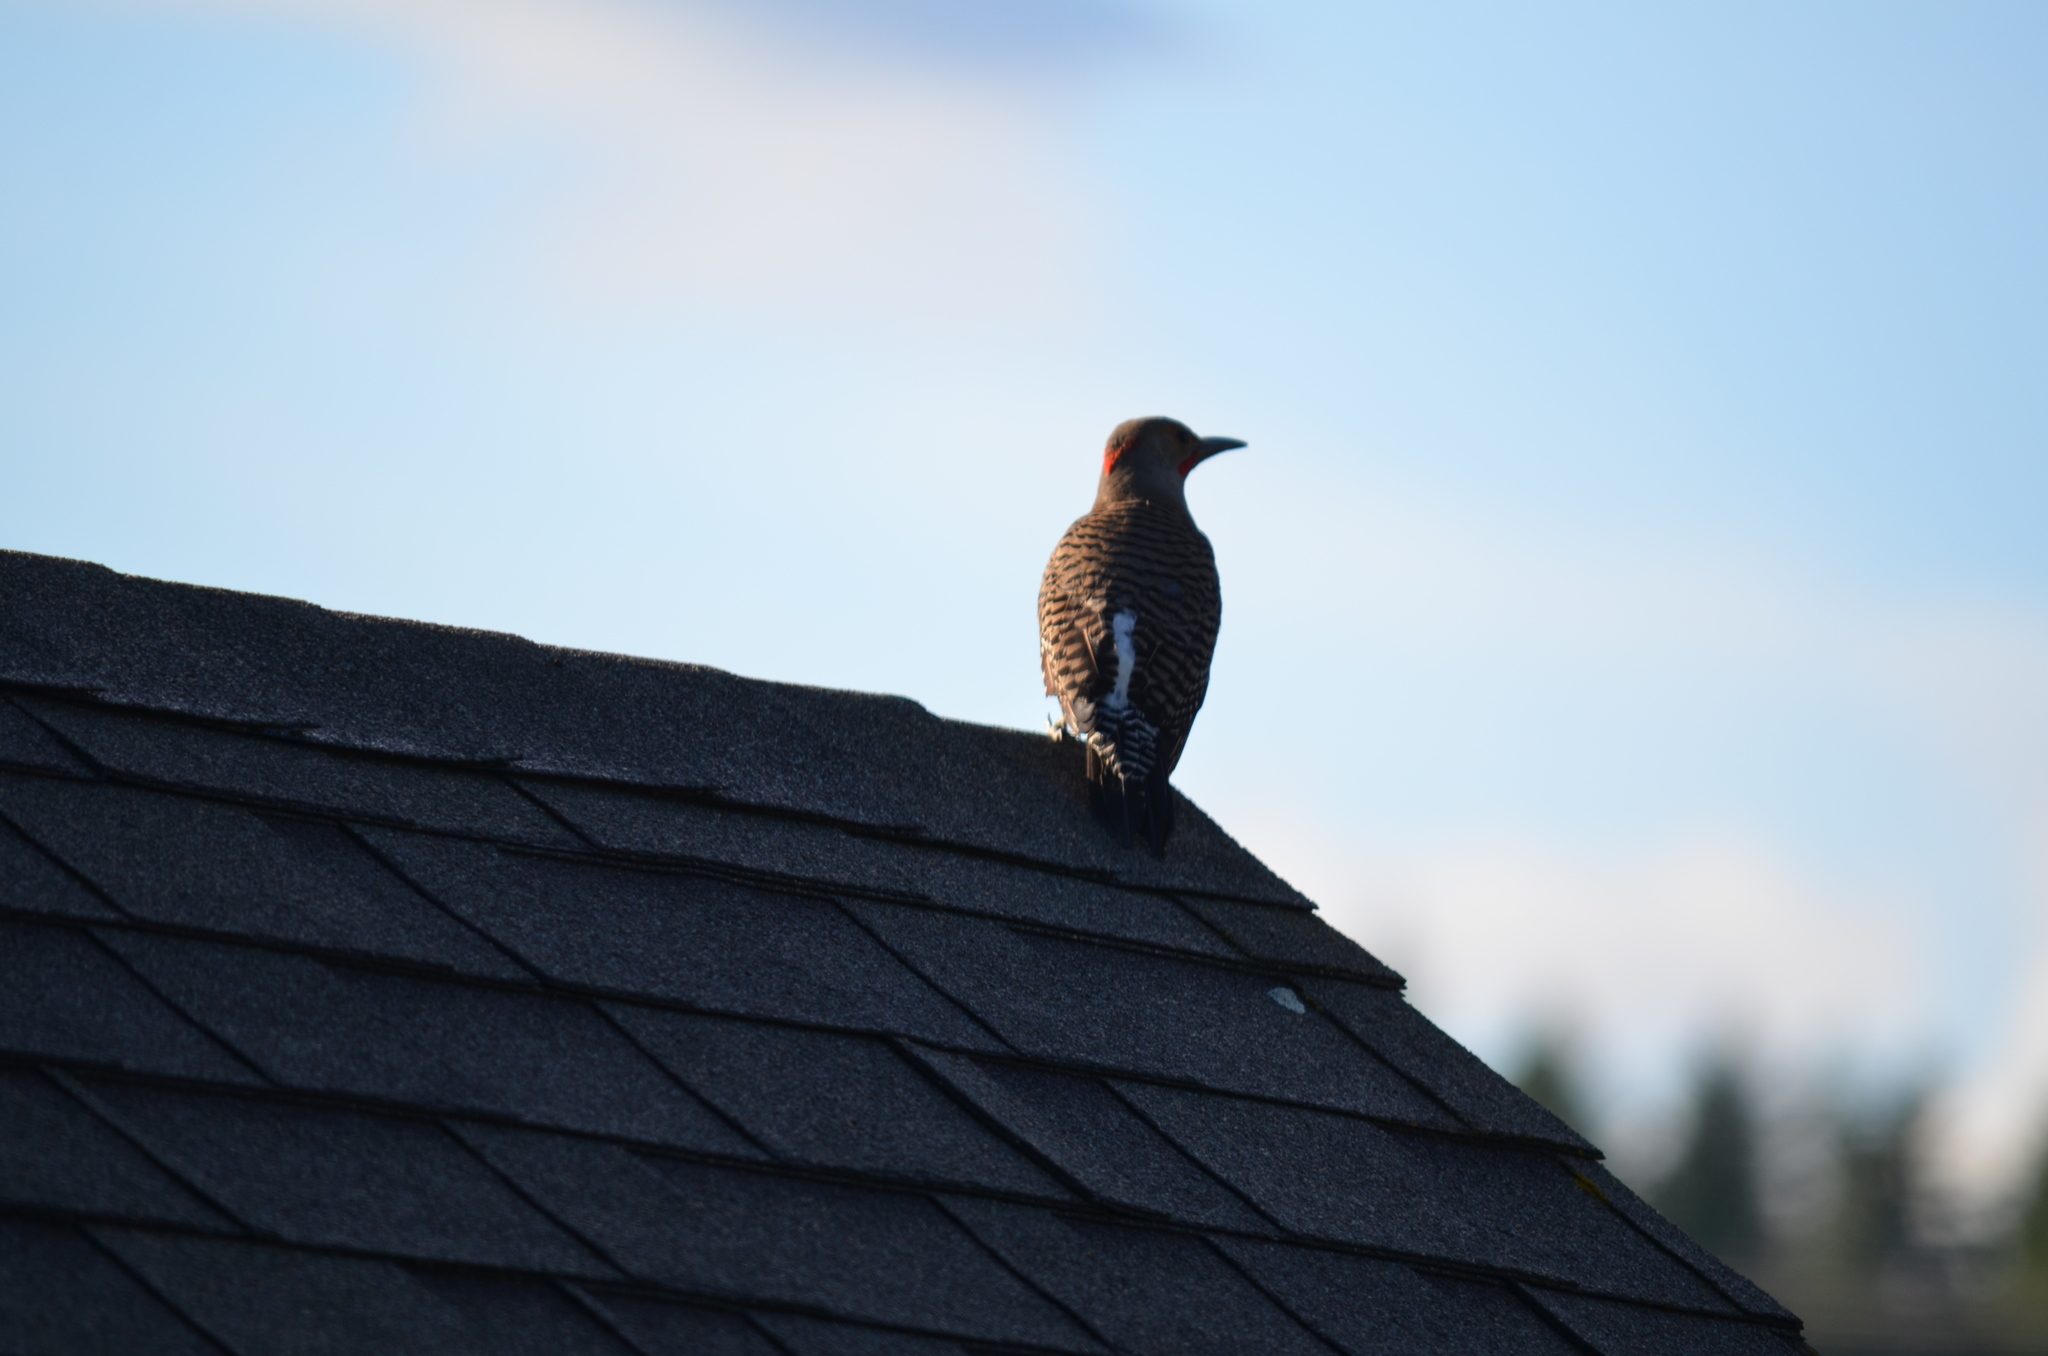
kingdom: Animalia
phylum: Chordata
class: Aves
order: Piciformes
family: Picidae
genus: Colaptes
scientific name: Colaptes auratus
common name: Northern flicker
